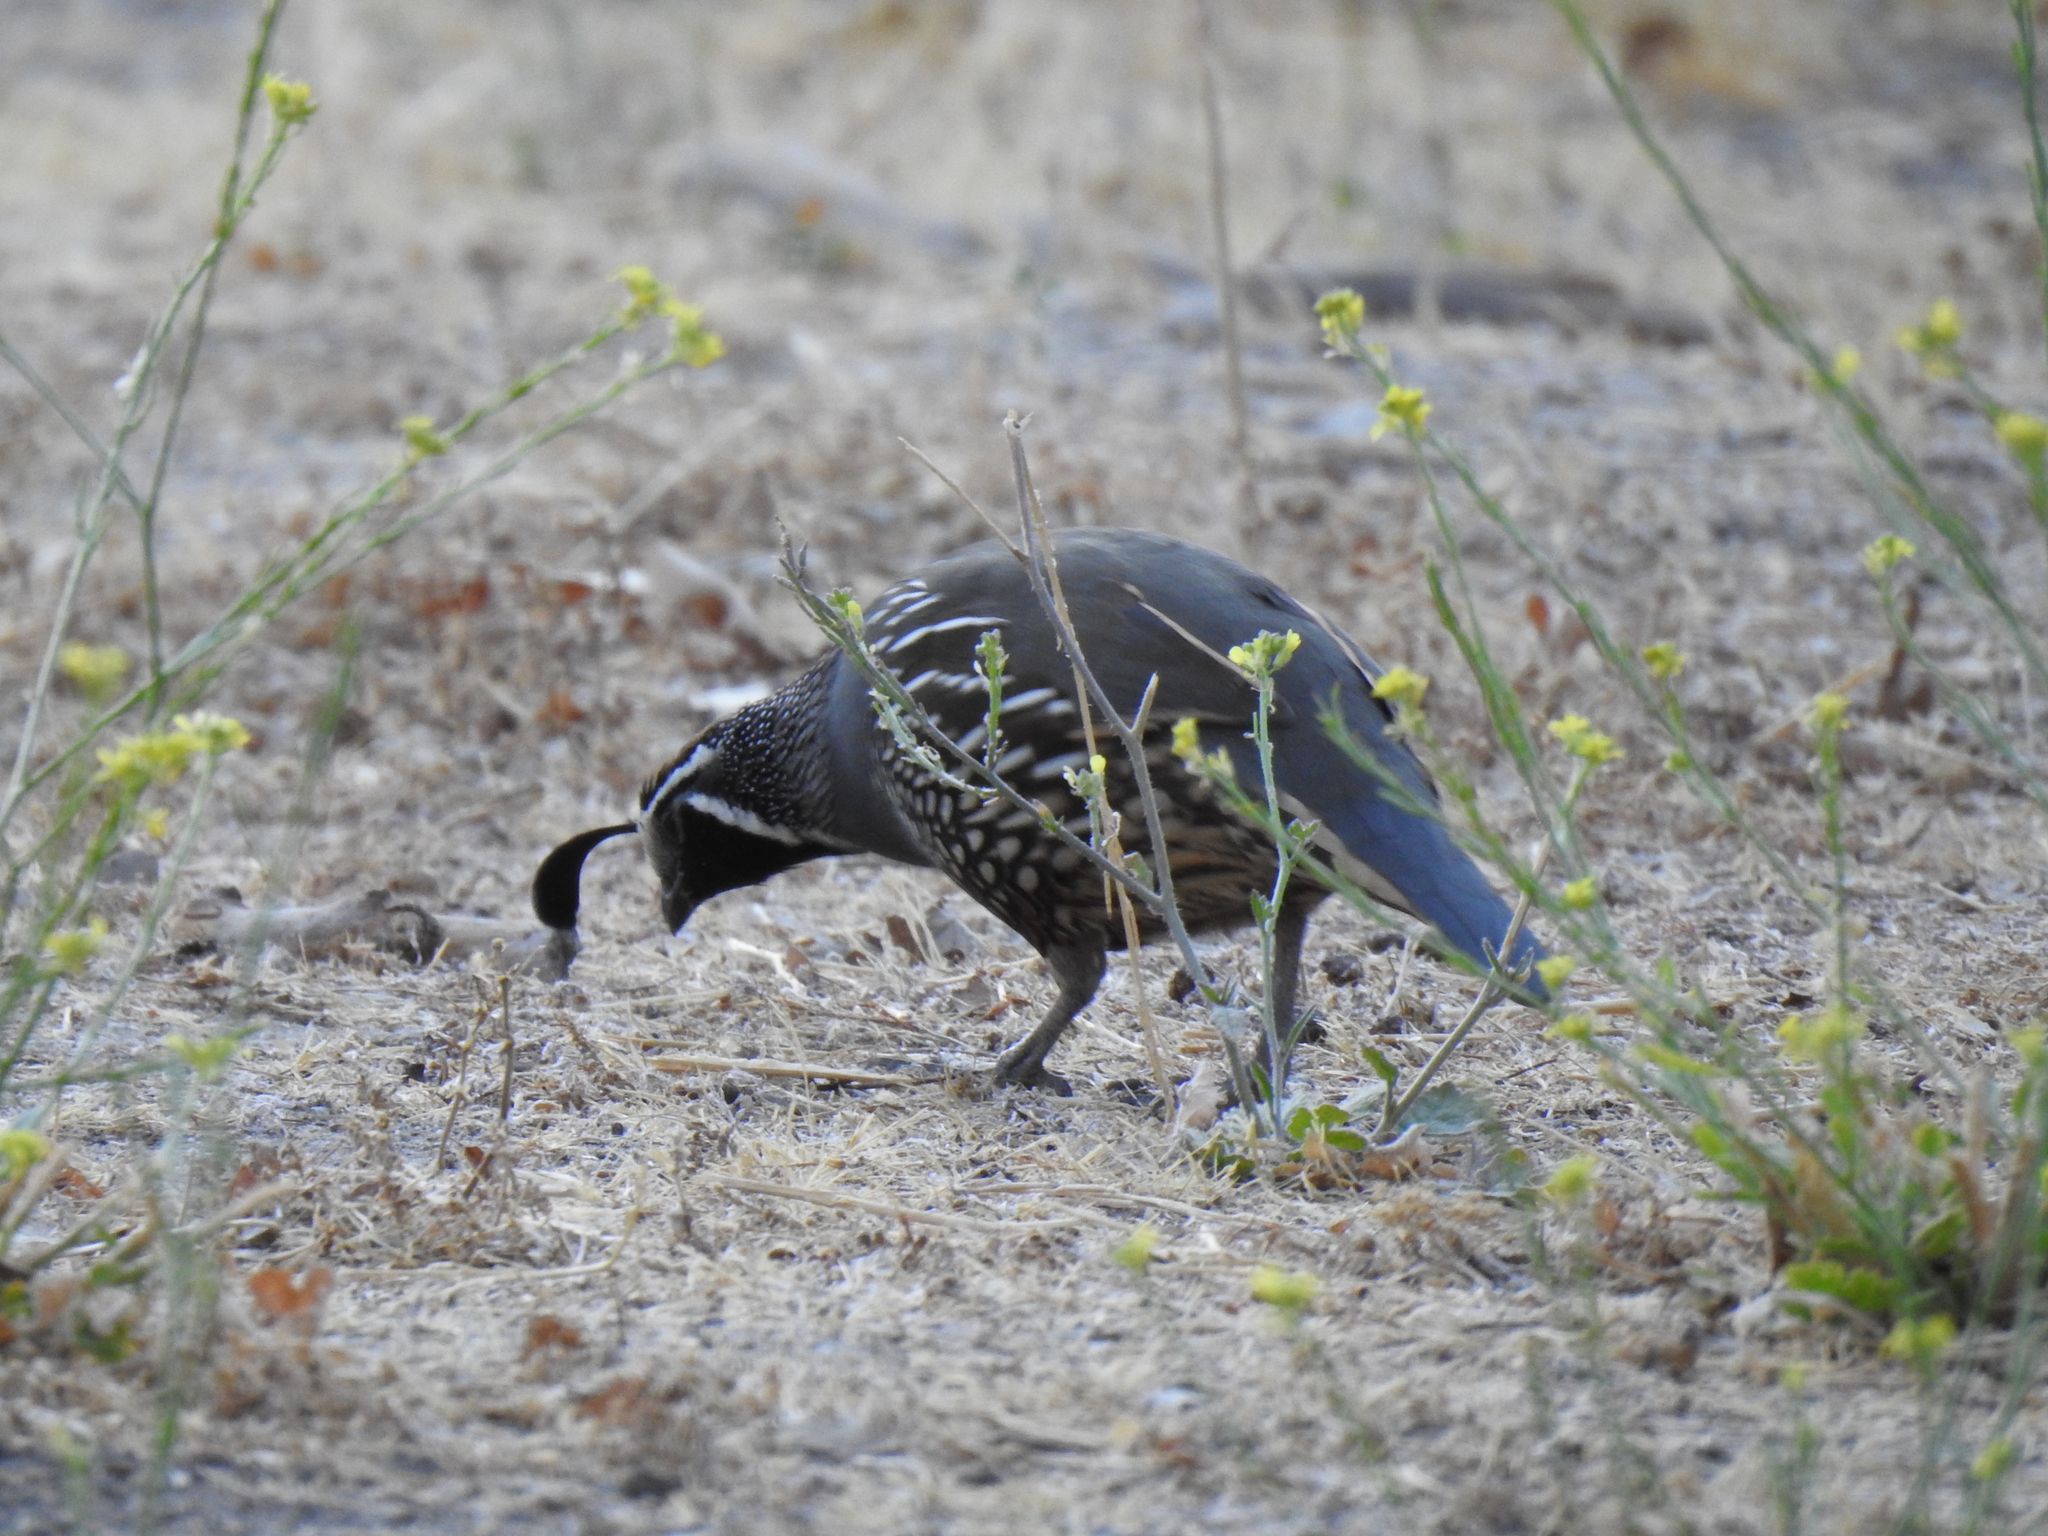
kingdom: Animalia
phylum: Chordata
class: Aves
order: Galliformes
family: Odontophoridae
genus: Callipepla
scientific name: Callipepla californica
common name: California quail
